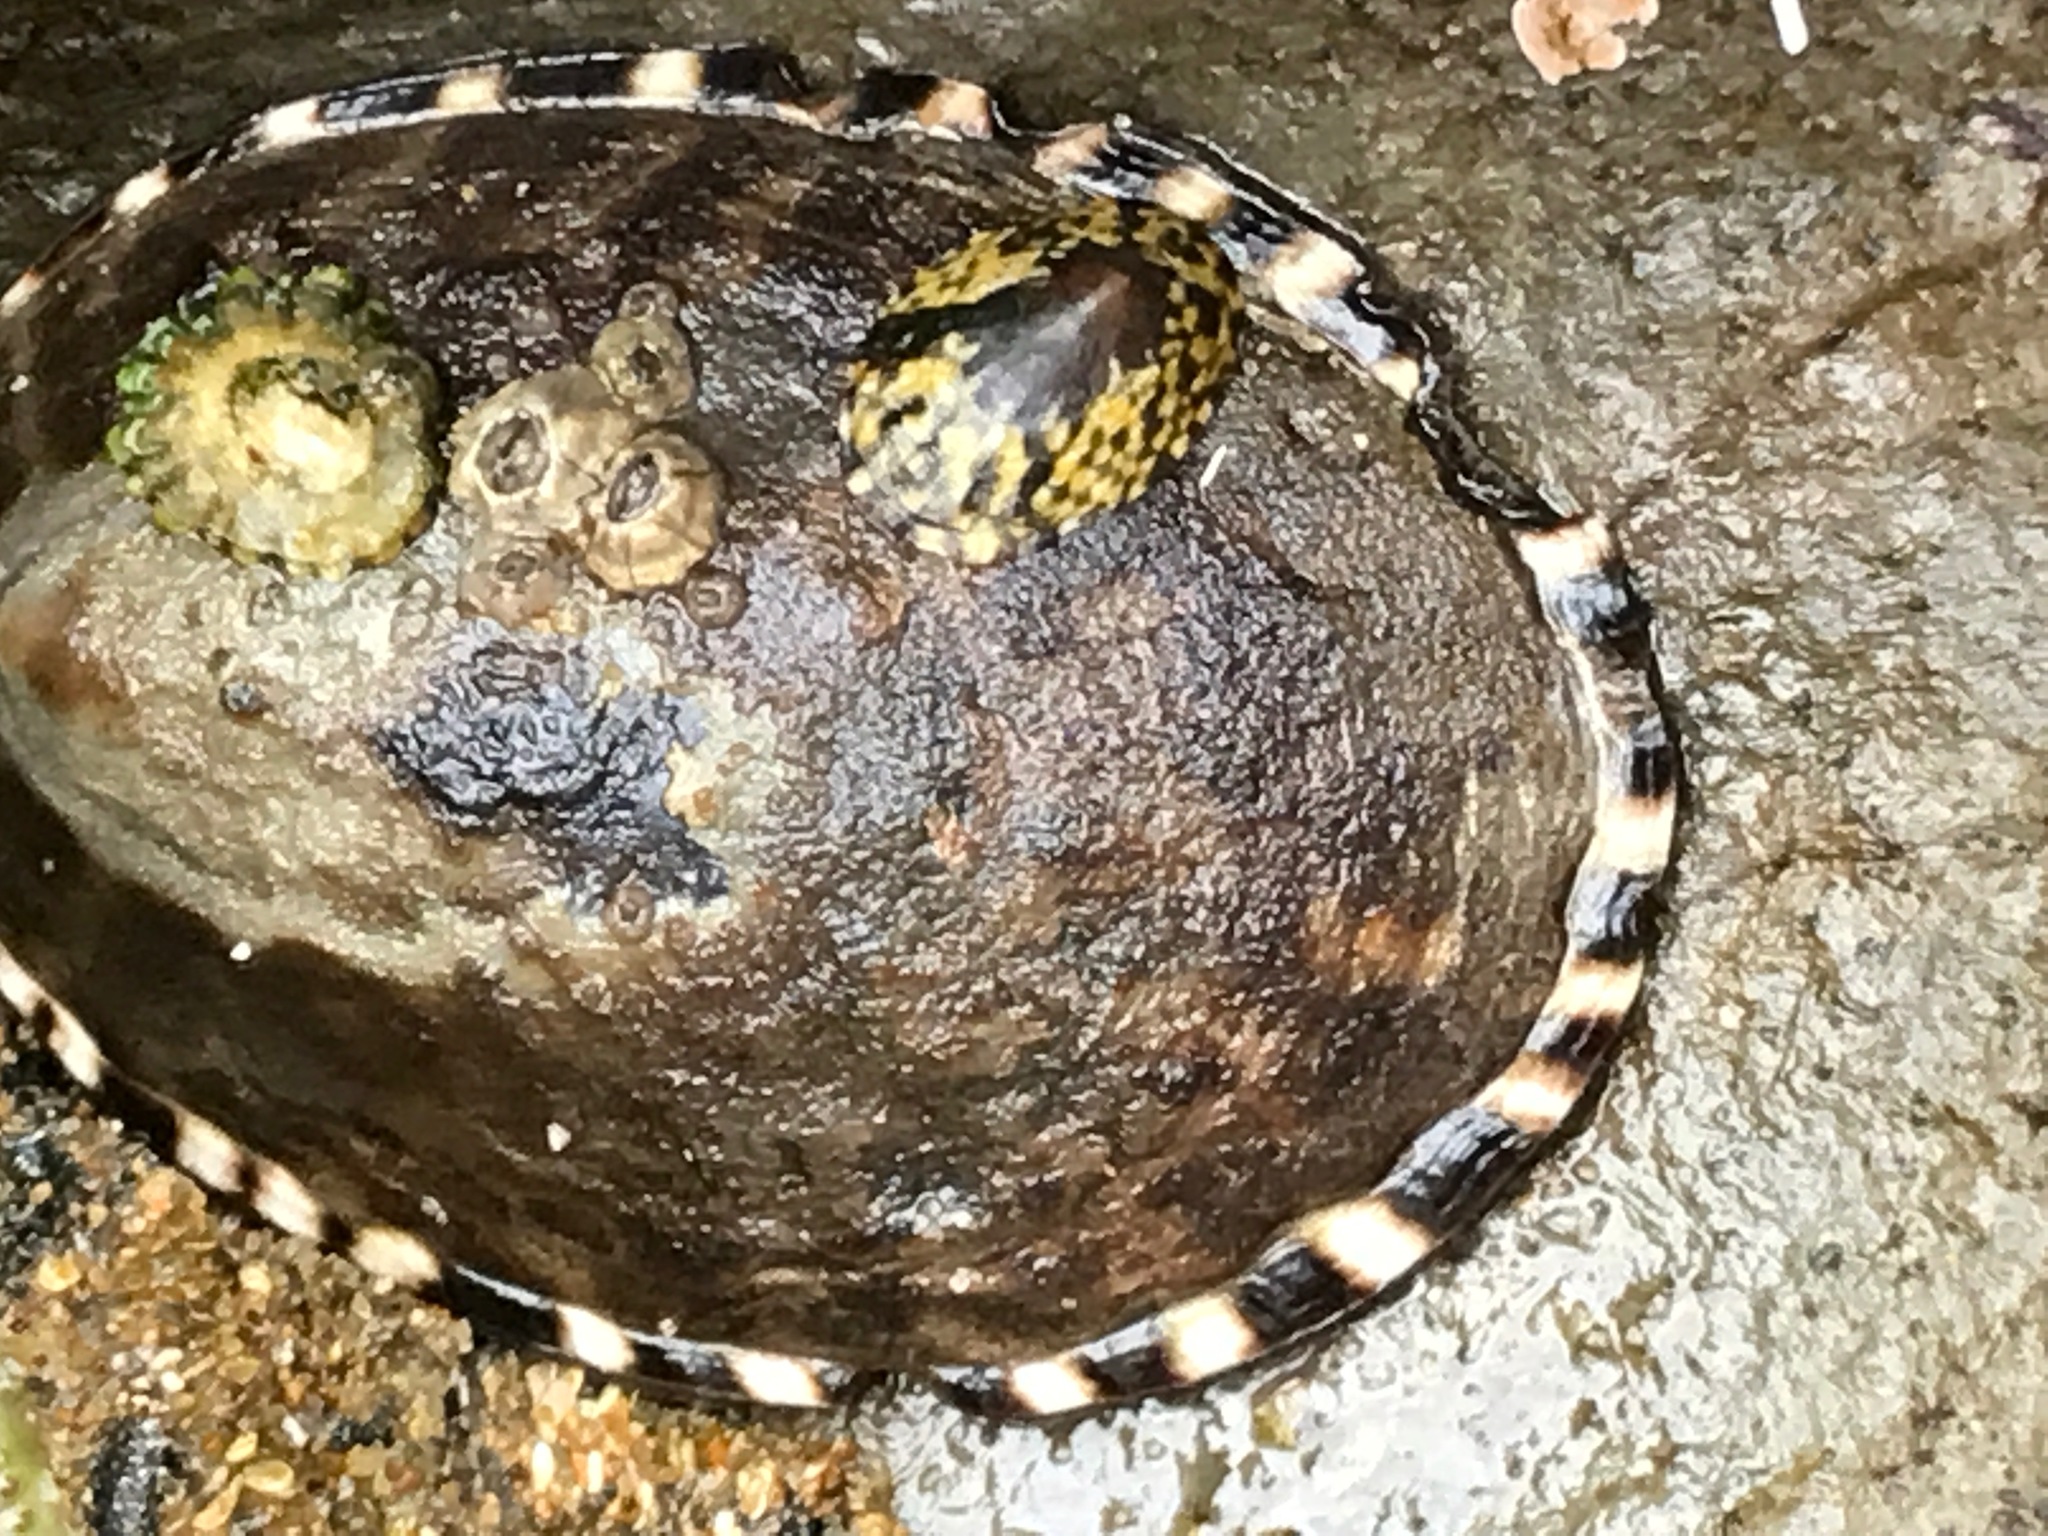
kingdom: Animalia
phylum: Mollusca
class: Gastropoda
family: Lottiidae
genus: Lottia
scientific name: Lottia gigantea
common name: Owl limpet
